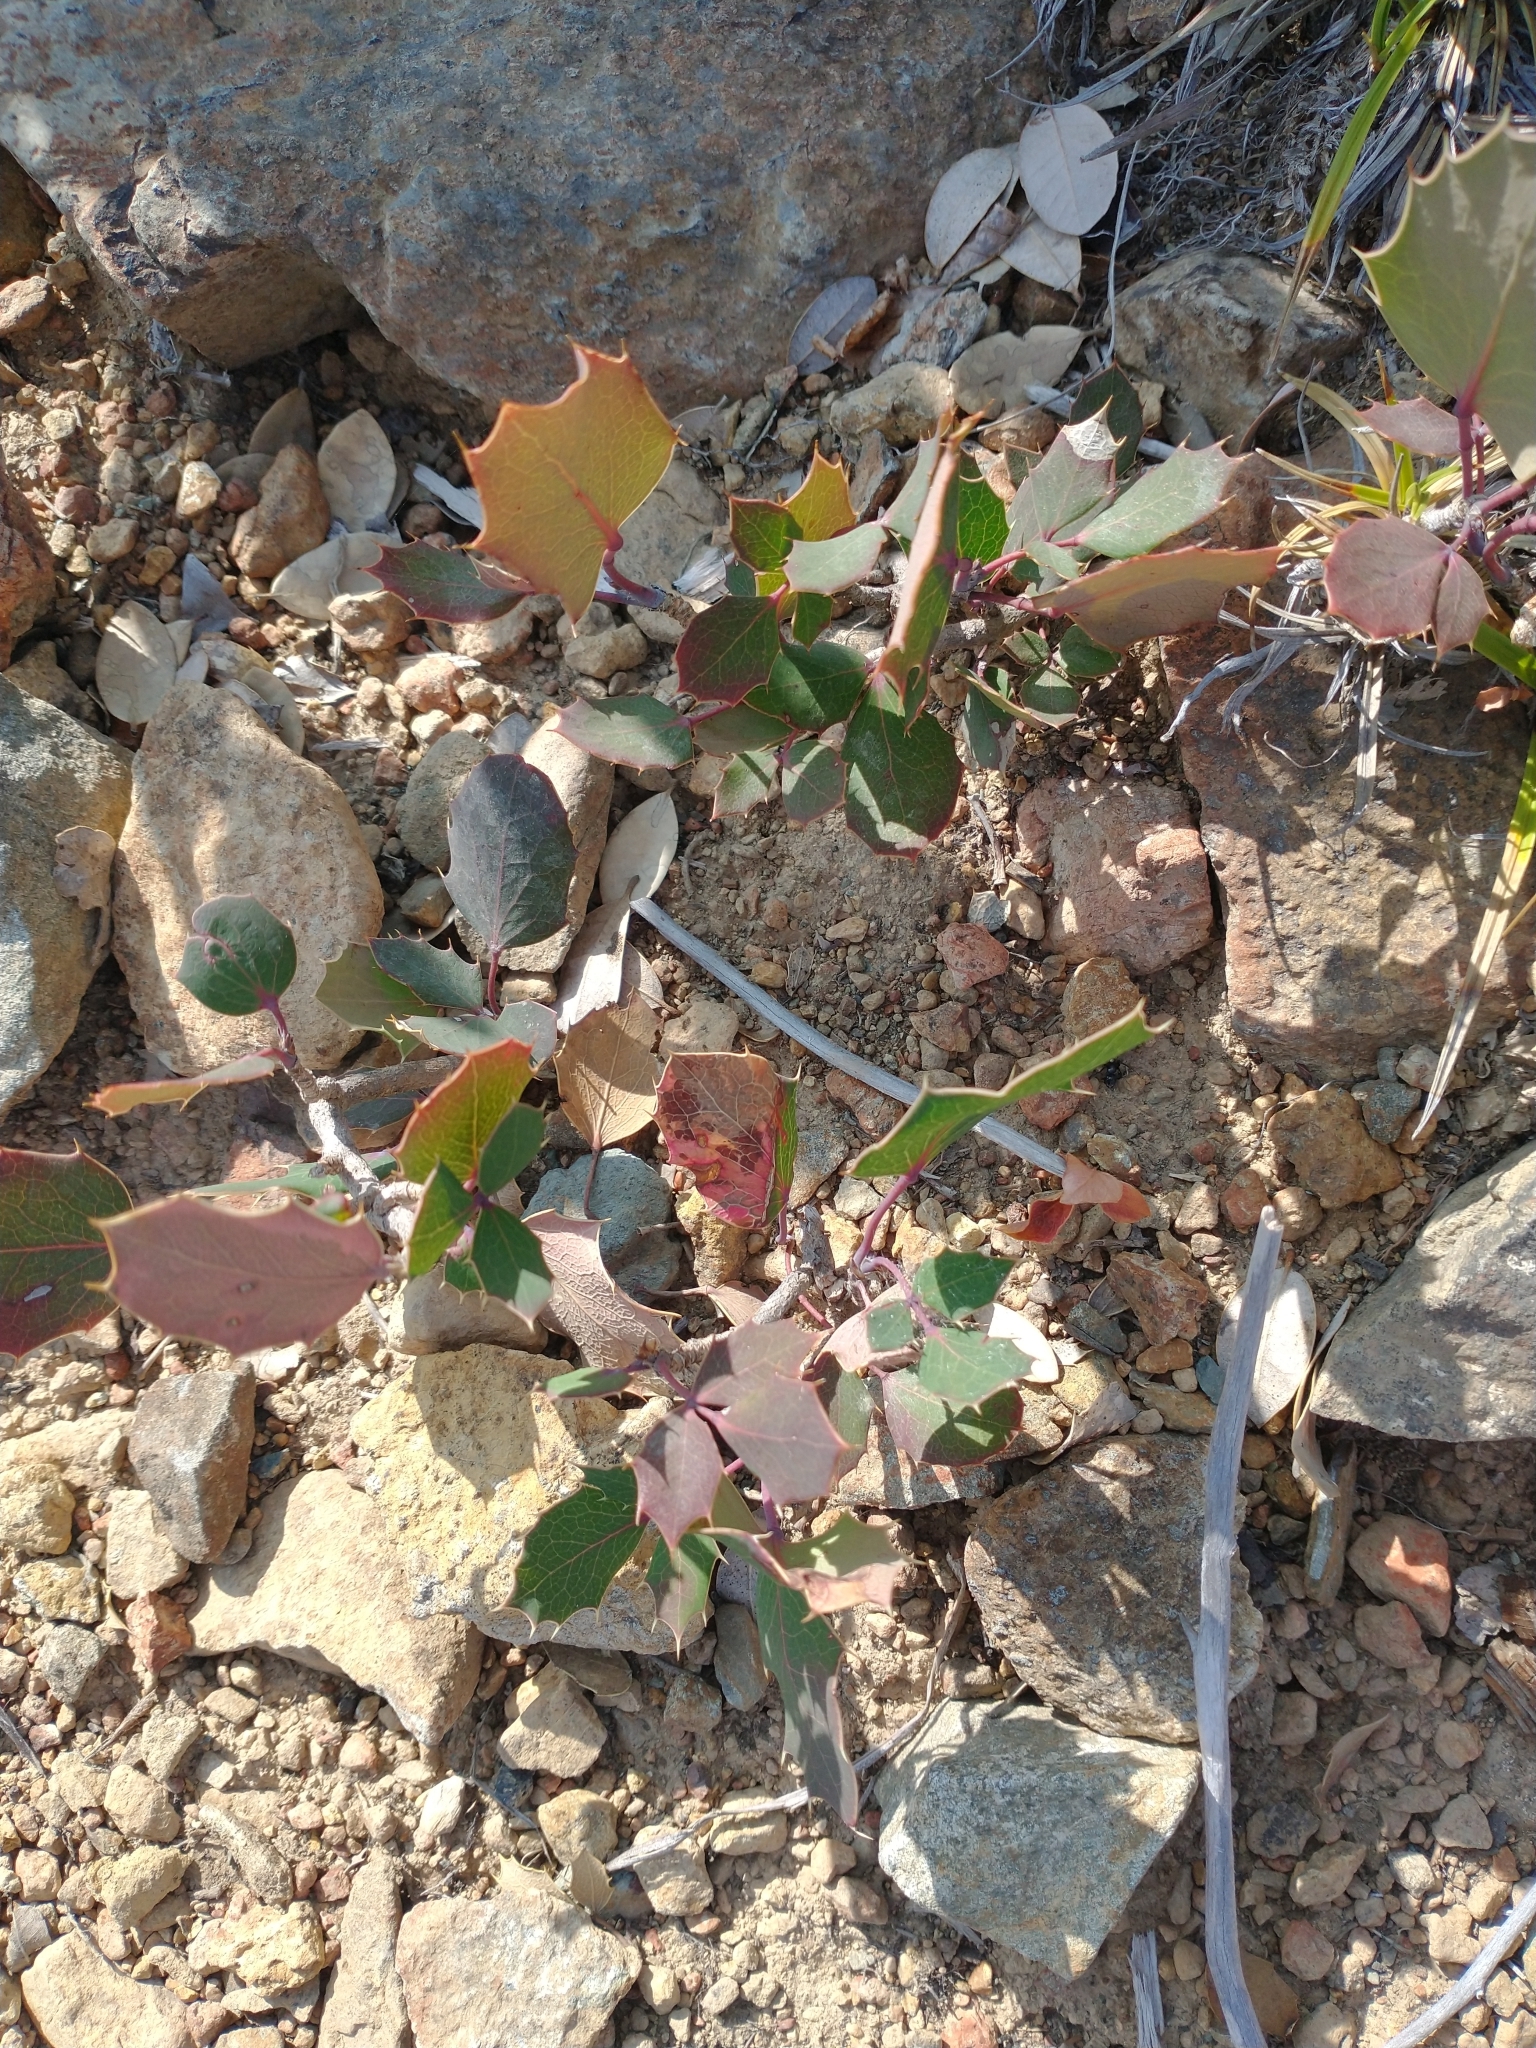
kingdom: Plantae
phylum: Tracheophyta
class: Magnoliopsida
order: Ranunculales
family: Berberidaceae
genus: Mahonia
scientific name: Mahonia repens
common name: Creeping oregon-grape
